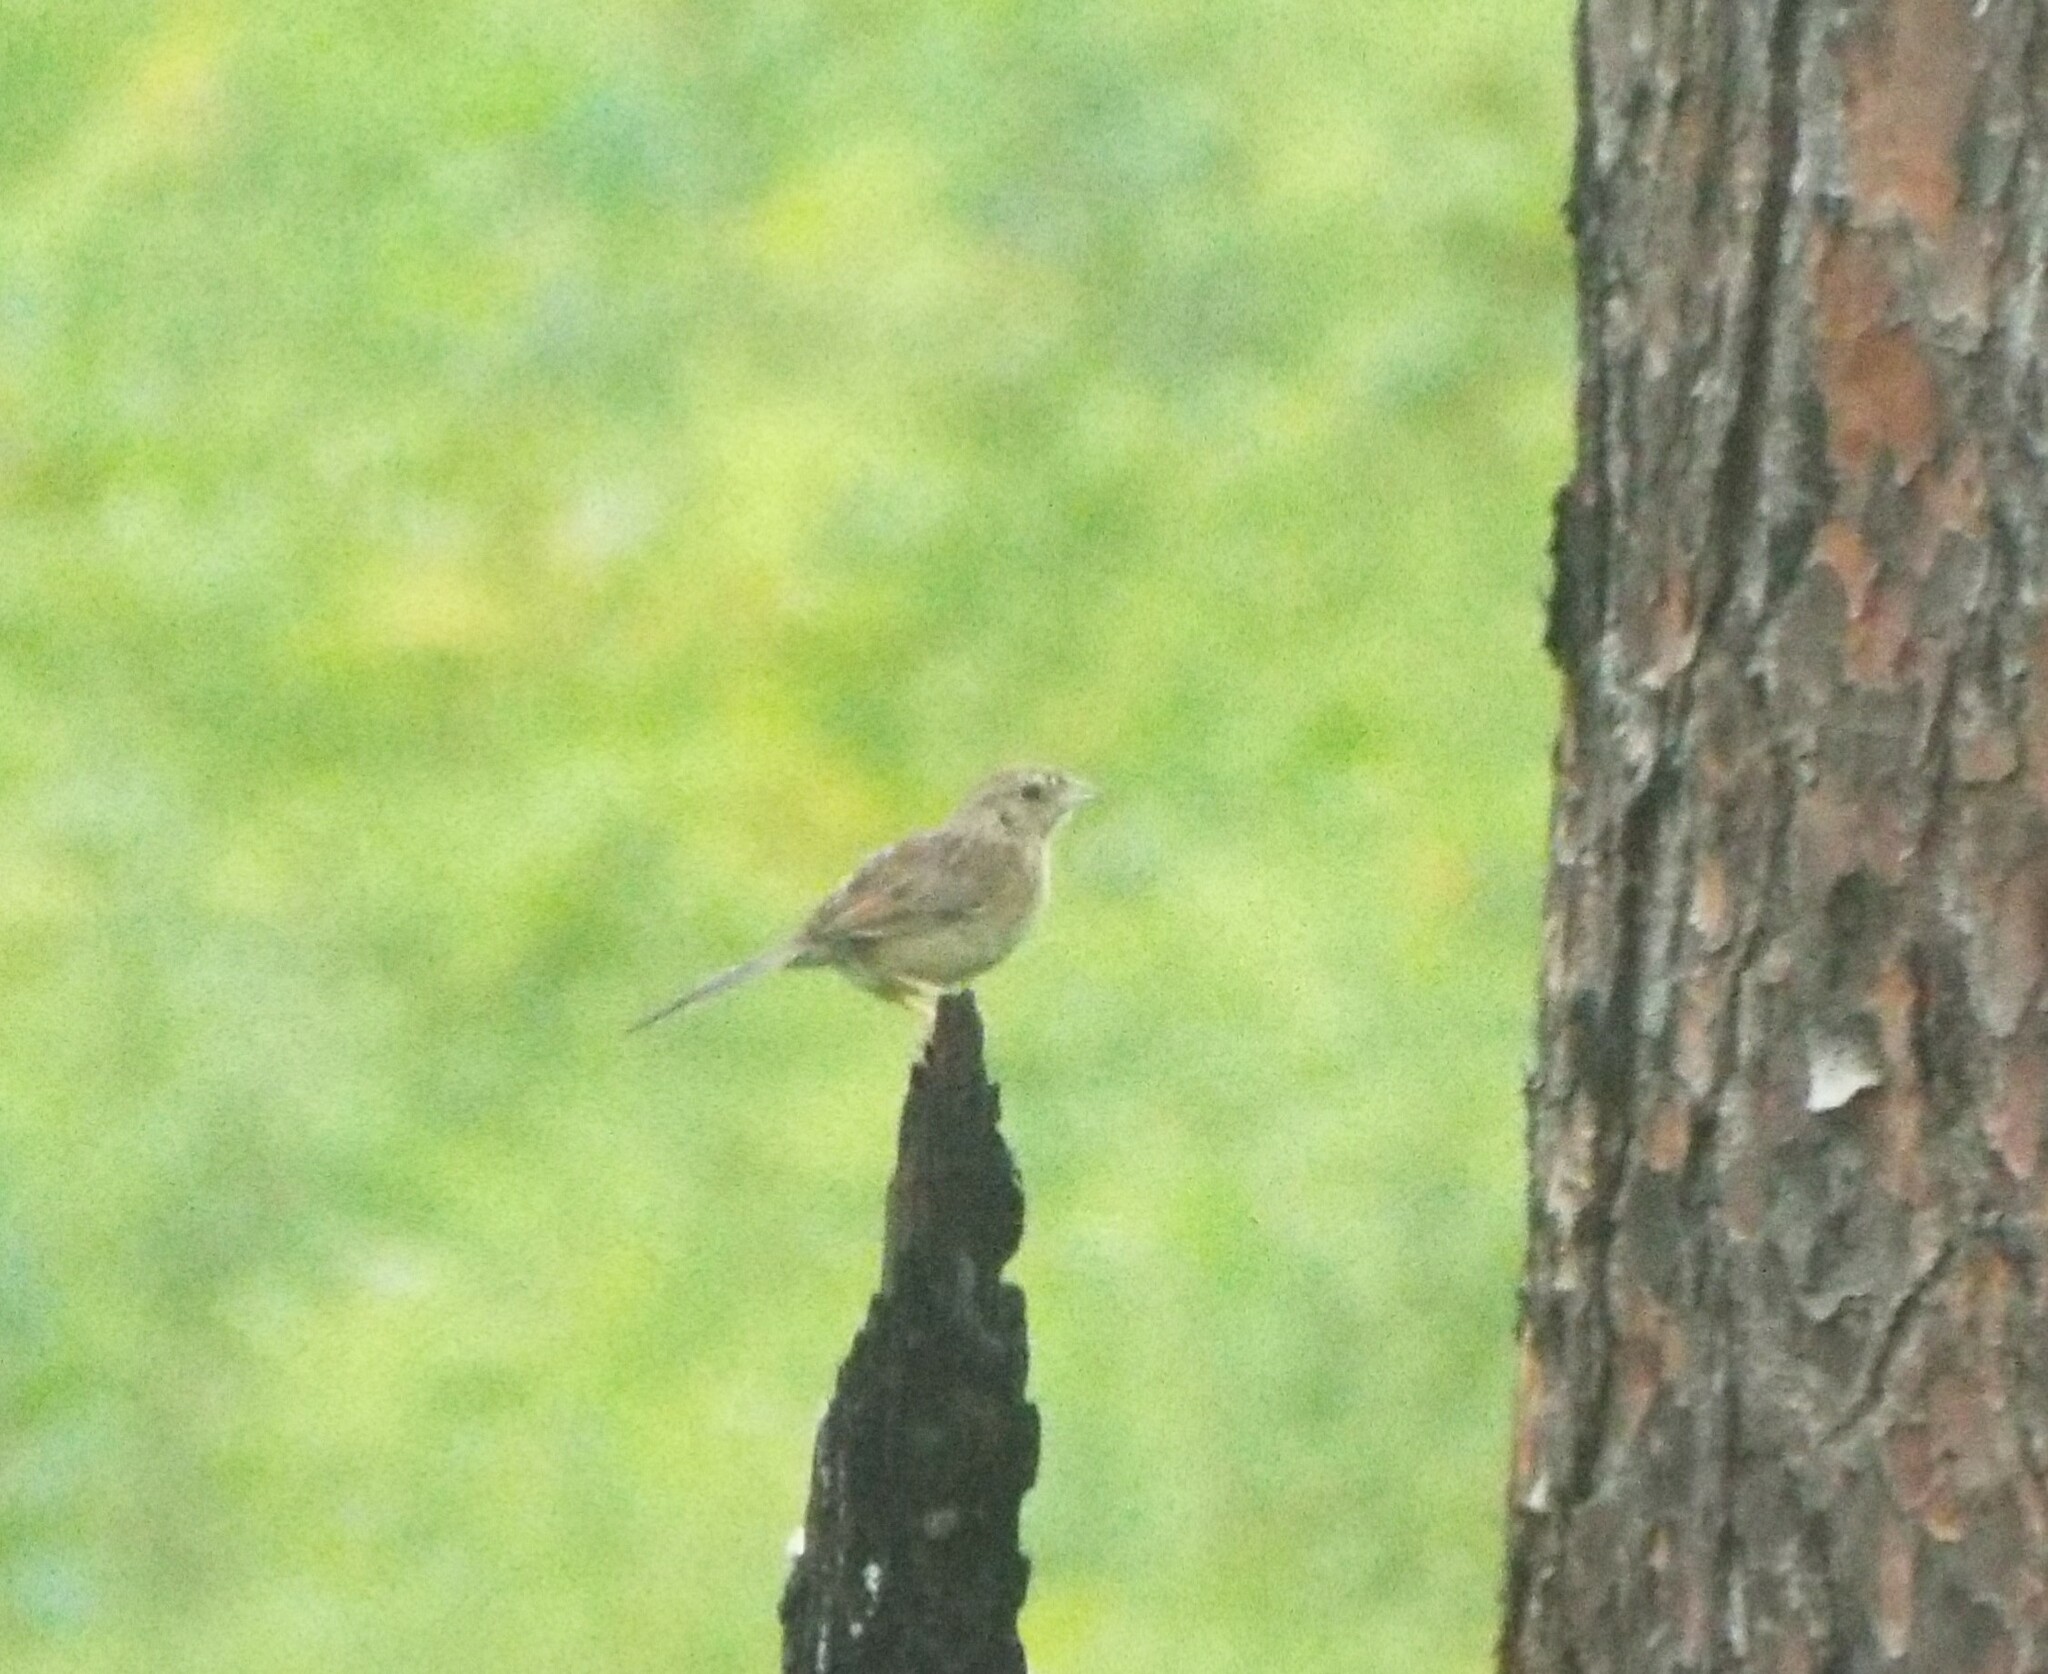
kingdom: Animalia
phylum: Chordata
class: Aves
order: Passeriformes
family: Passerellidae
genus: Peucaea
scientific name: Peucaea aestivalis
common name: Bachman's sparrow
